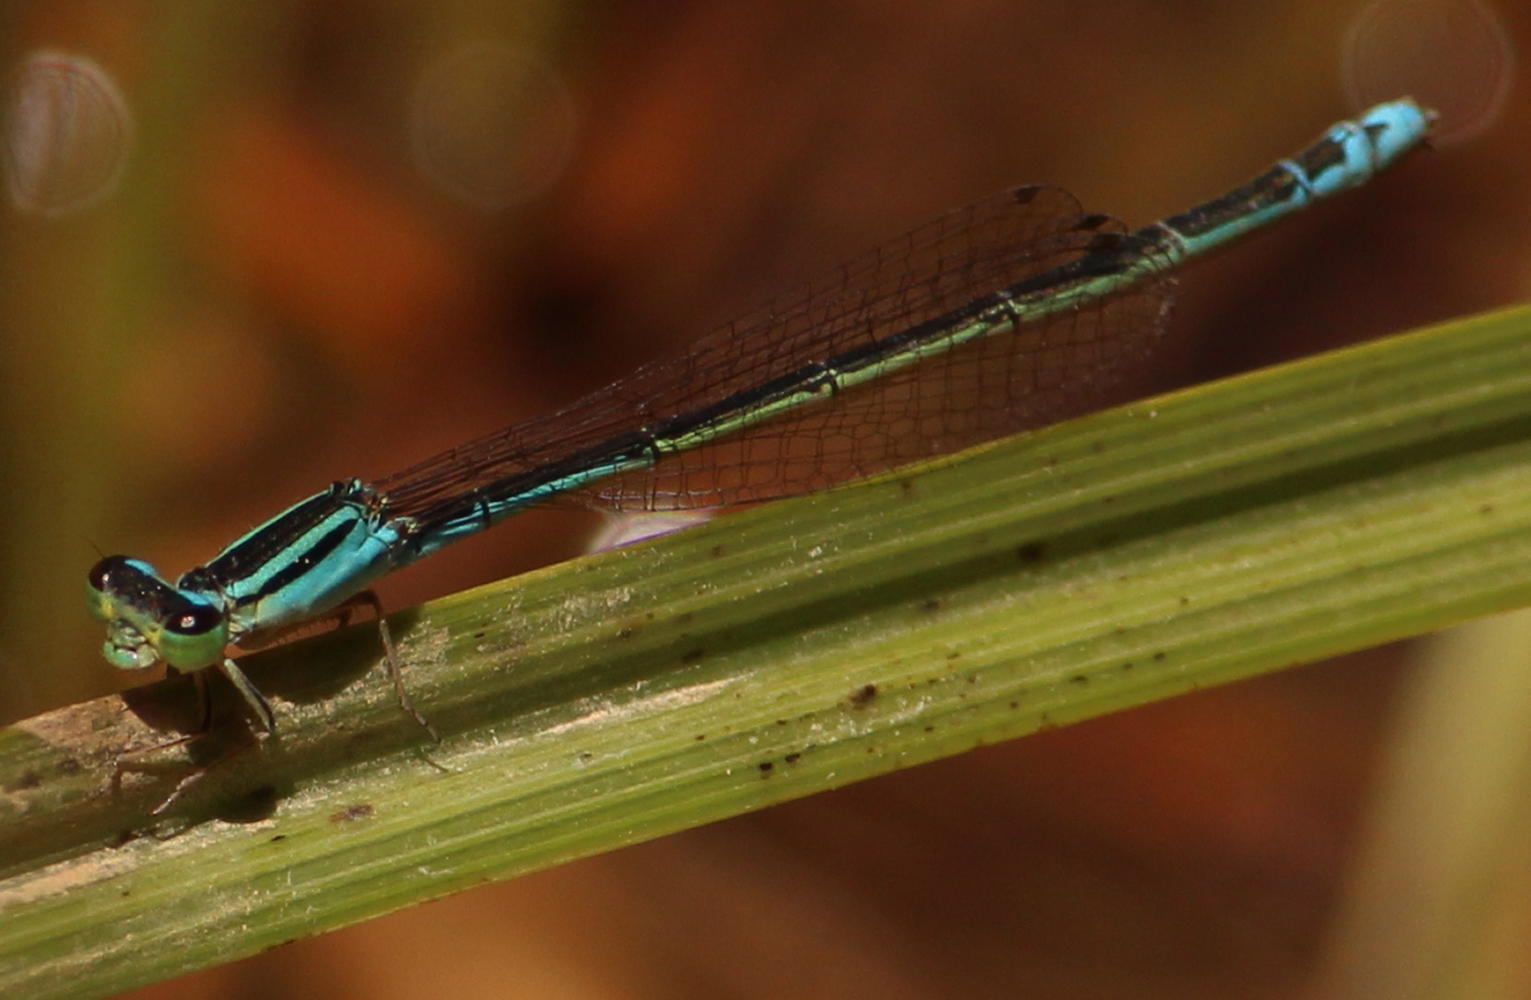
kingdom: Animalia
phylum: Arthropoda
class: Insecta
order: Odonata
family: Coenagrionidae
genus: Africallagma
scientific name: Africallagma fractum
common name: Slender bluet
